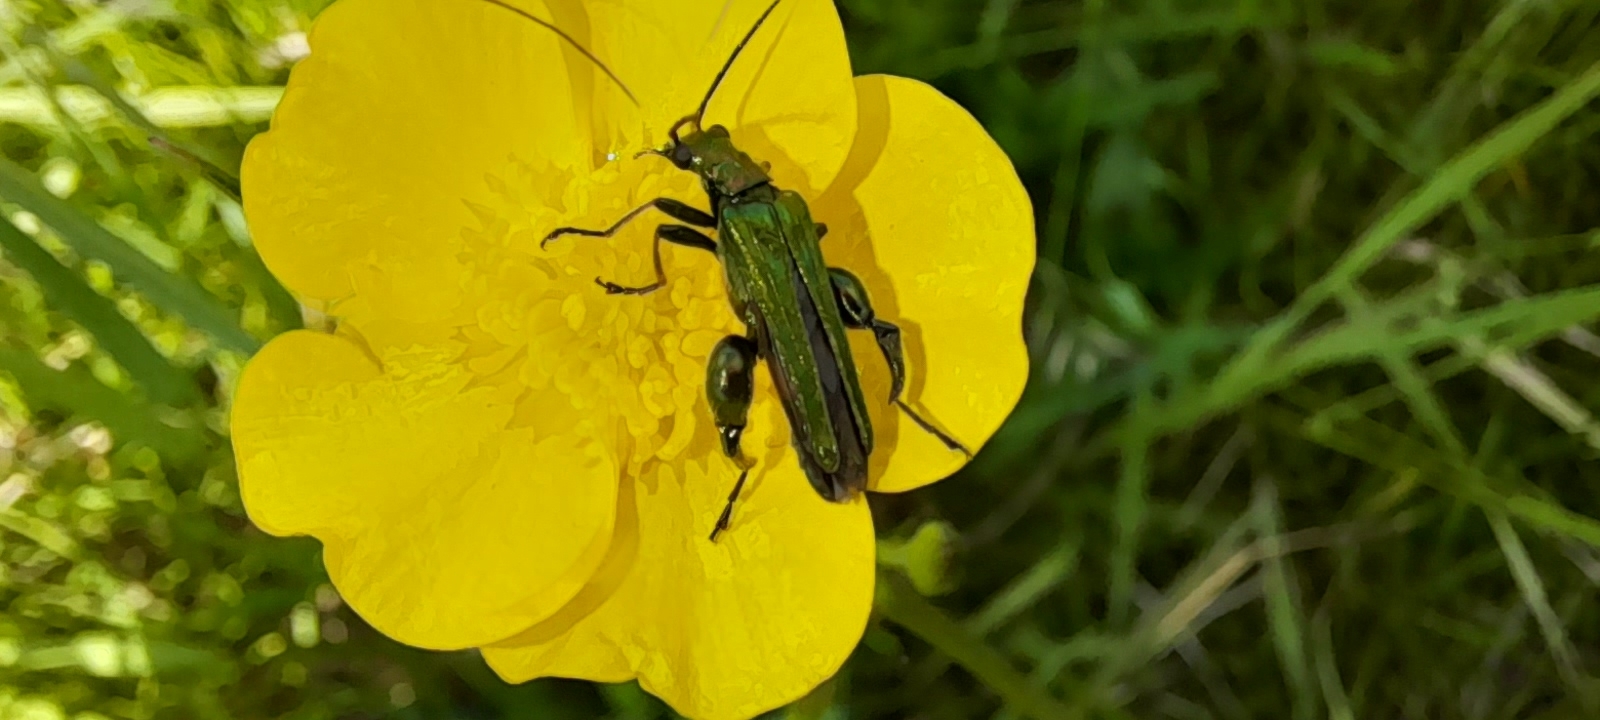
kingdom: Animalia
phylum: Arthropoda
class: Insecta
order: Coleoptera
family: Oedemeridae
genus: Oedemera
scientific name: Oedemera nobilis
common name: Swollen-thighed beetle
